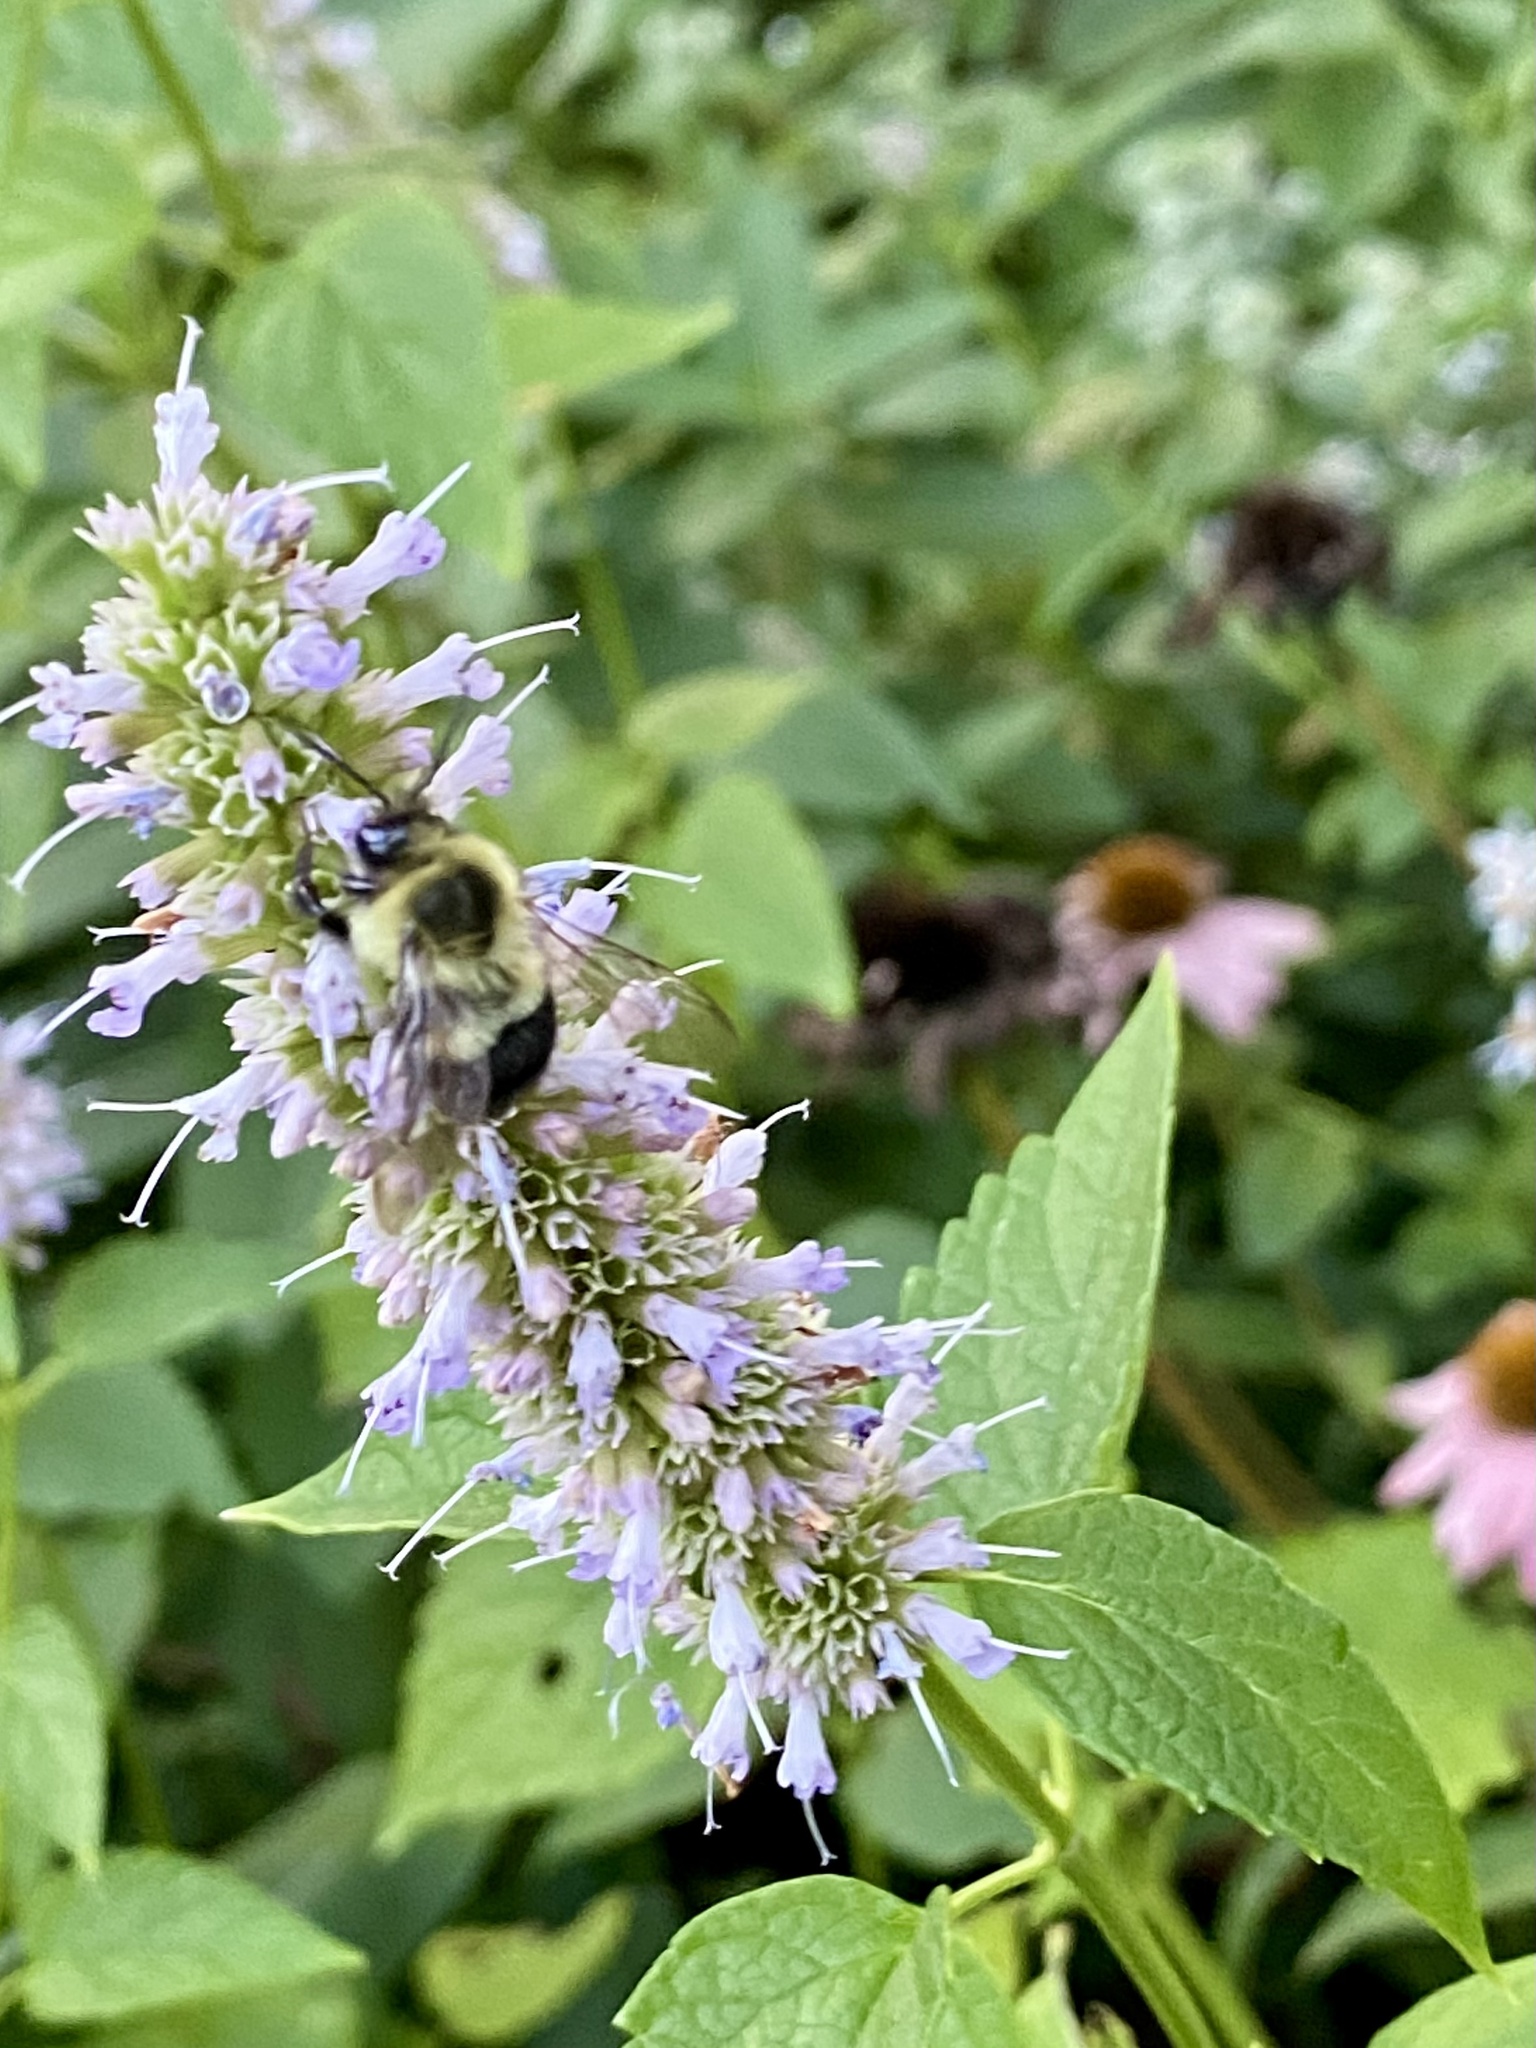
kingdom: Animalia
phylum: Arthropoda
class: Insecta
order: Hymenoptera
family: Apidae
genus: Bombus
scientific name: Bombus impatiens
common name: Common eastern bumble bee
